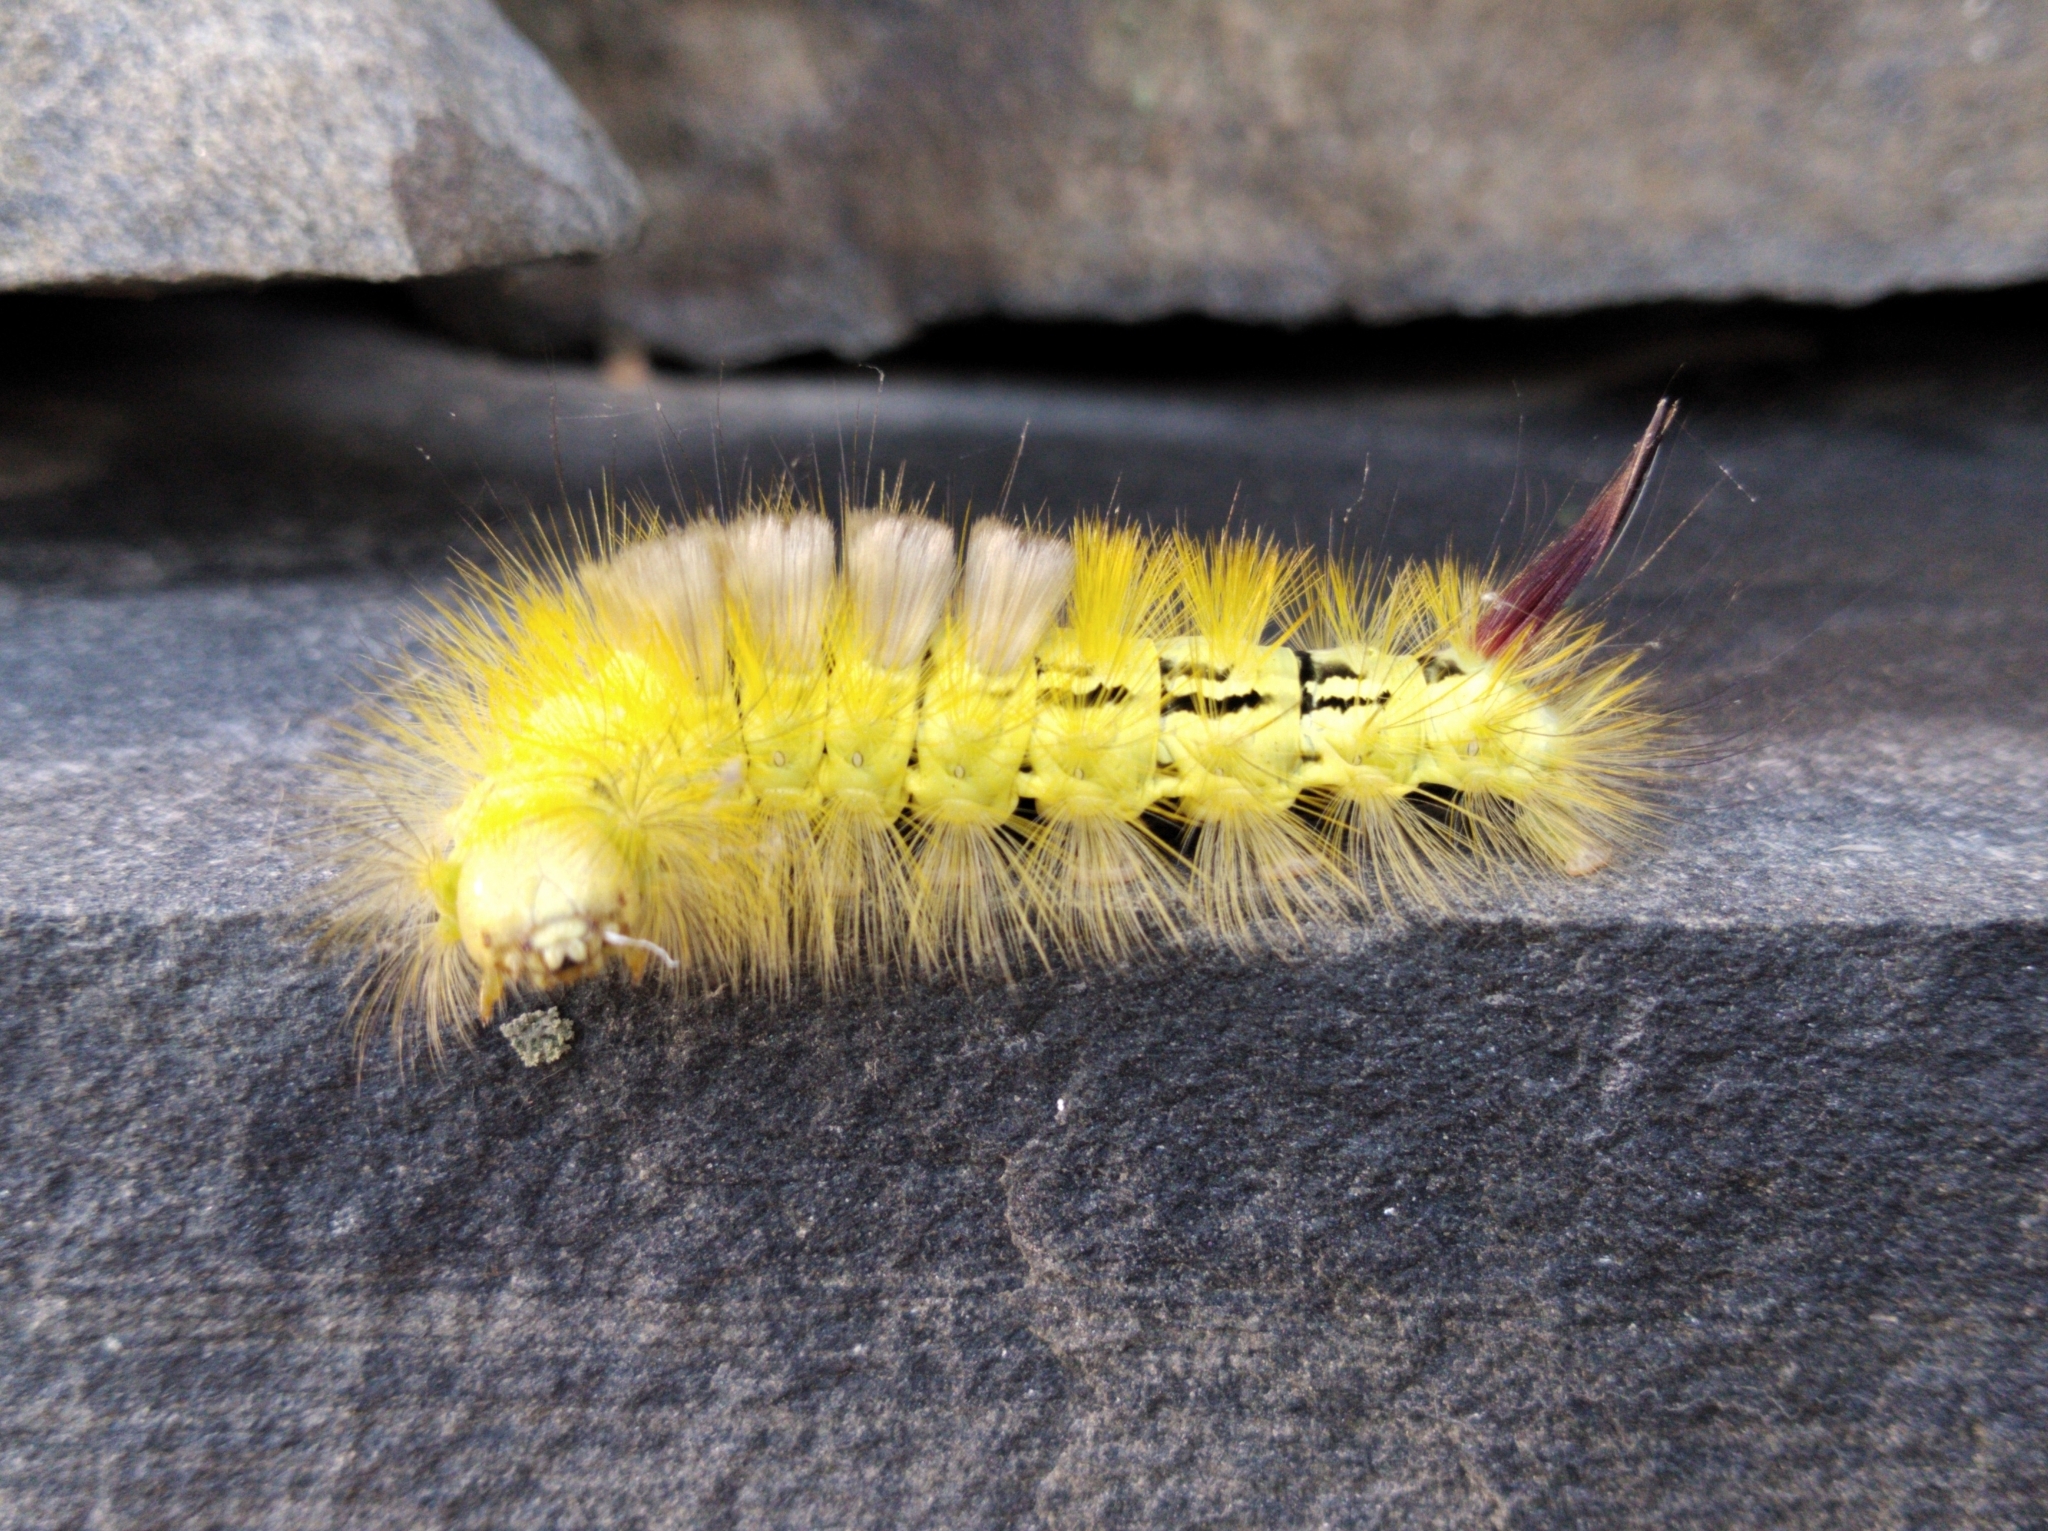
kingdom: Animalia
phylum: Arthropoda
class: Insecta
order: Lepidoptera
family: Erebidae
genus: Calliteara
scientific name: Calliteara pudibunda
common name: Pale tussock
